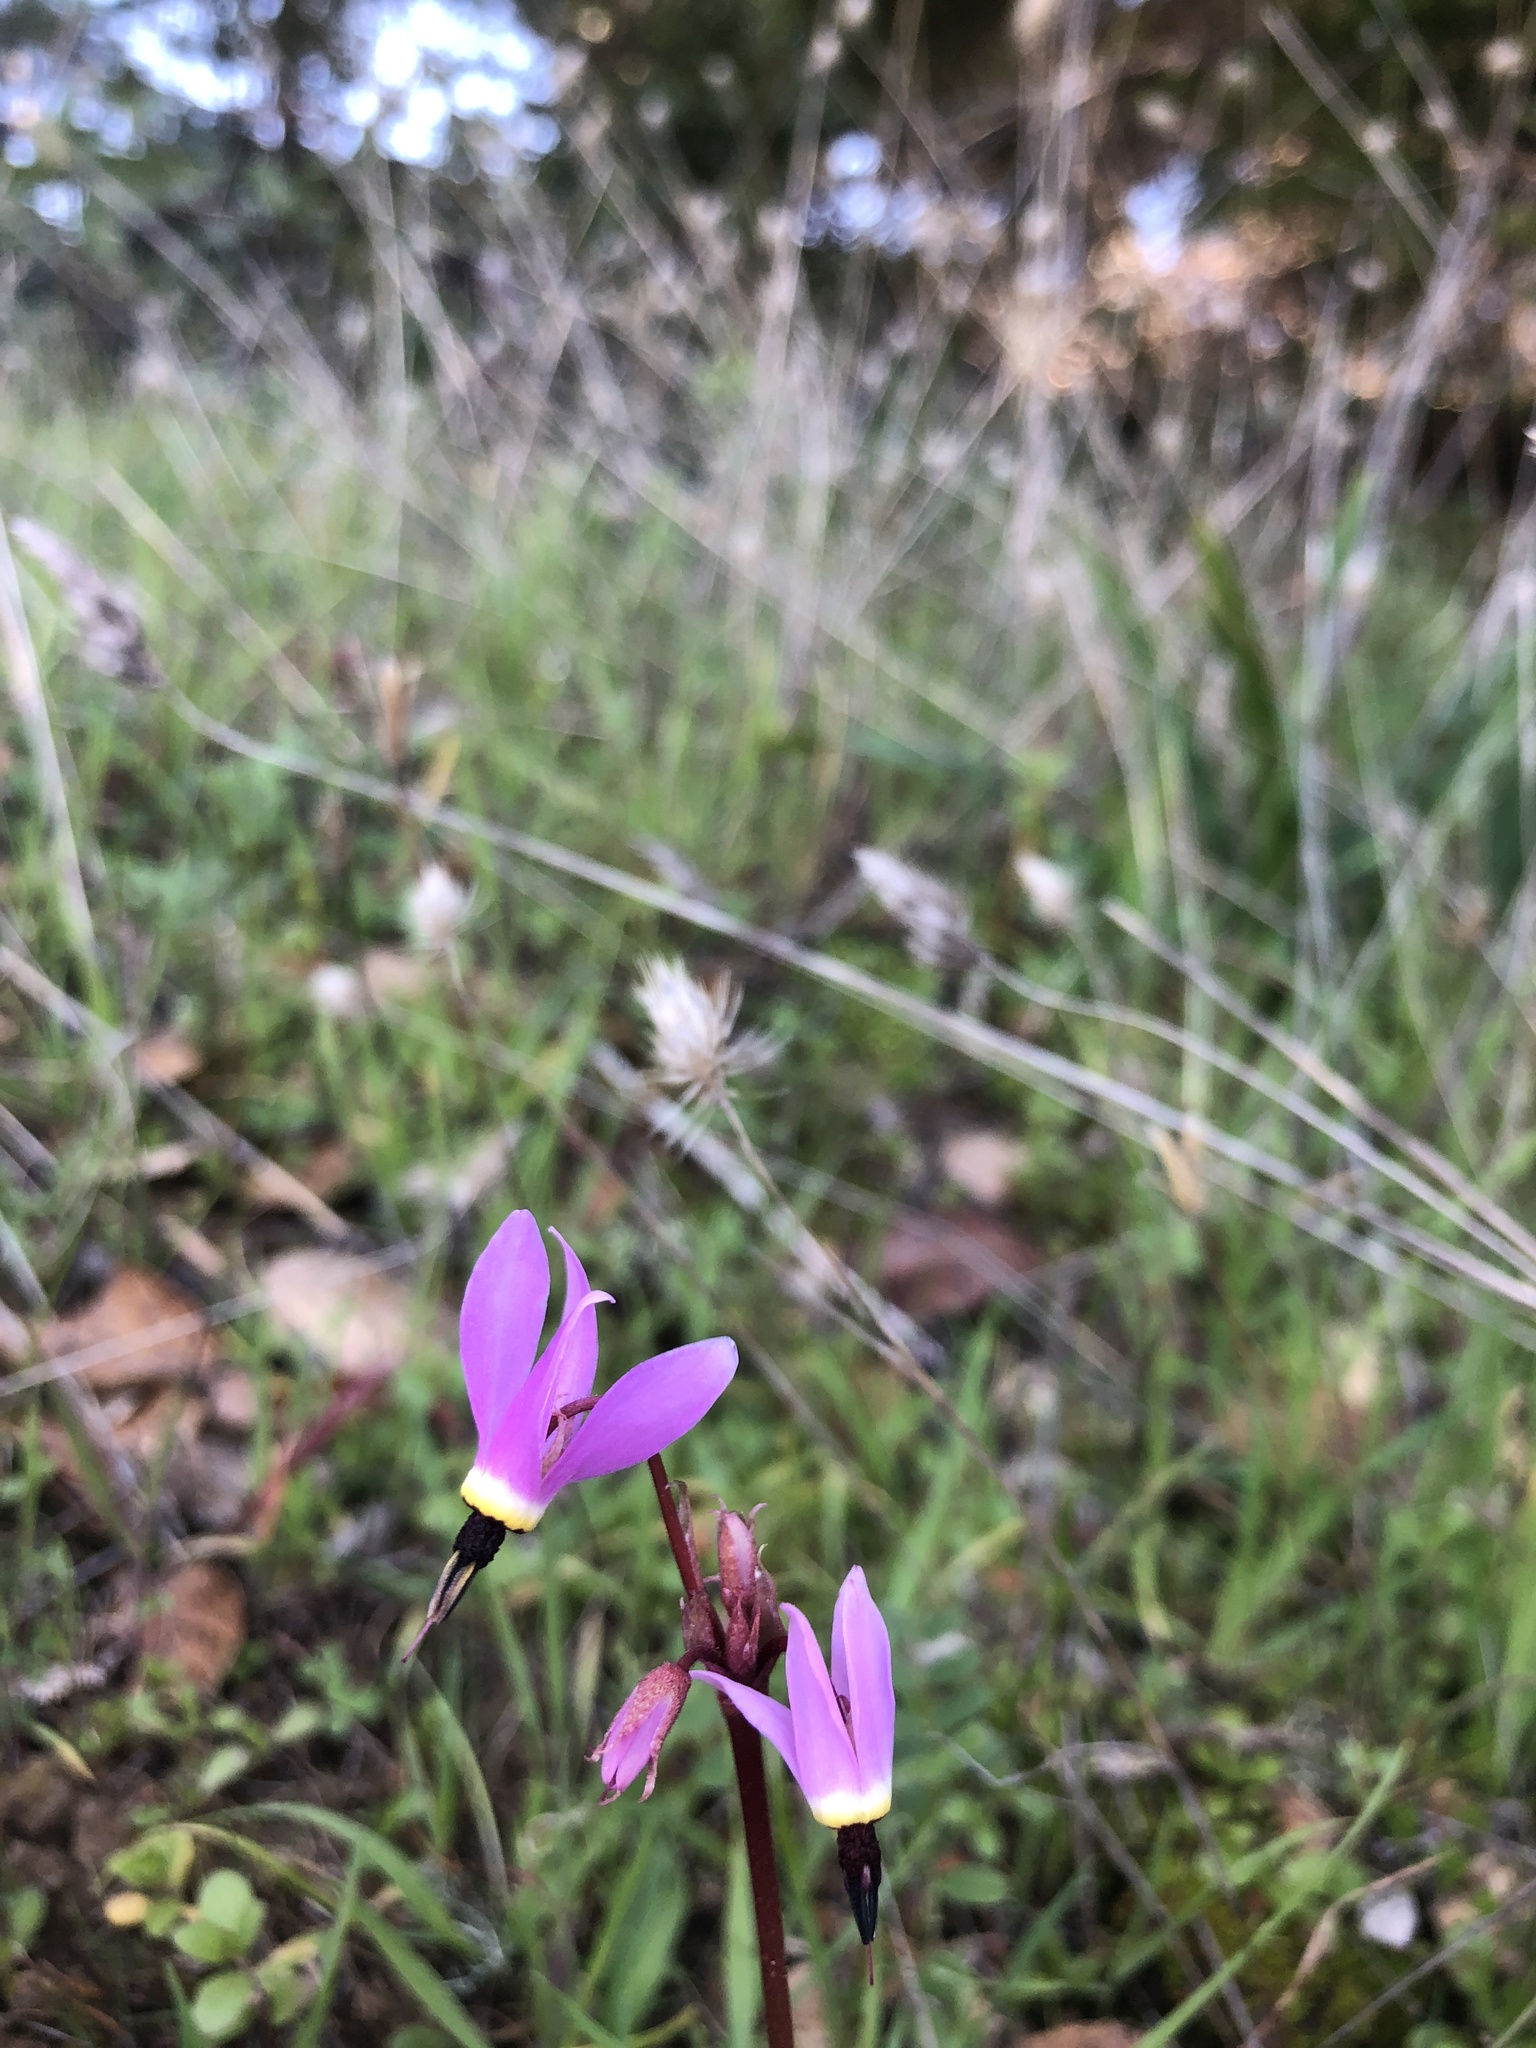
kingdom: Plantae
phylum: Tracheophyta
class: Magnoliopsida
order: Ericales
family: Primulaceae
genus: Dodecatheon
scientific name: Dodecatheon hendersonii
